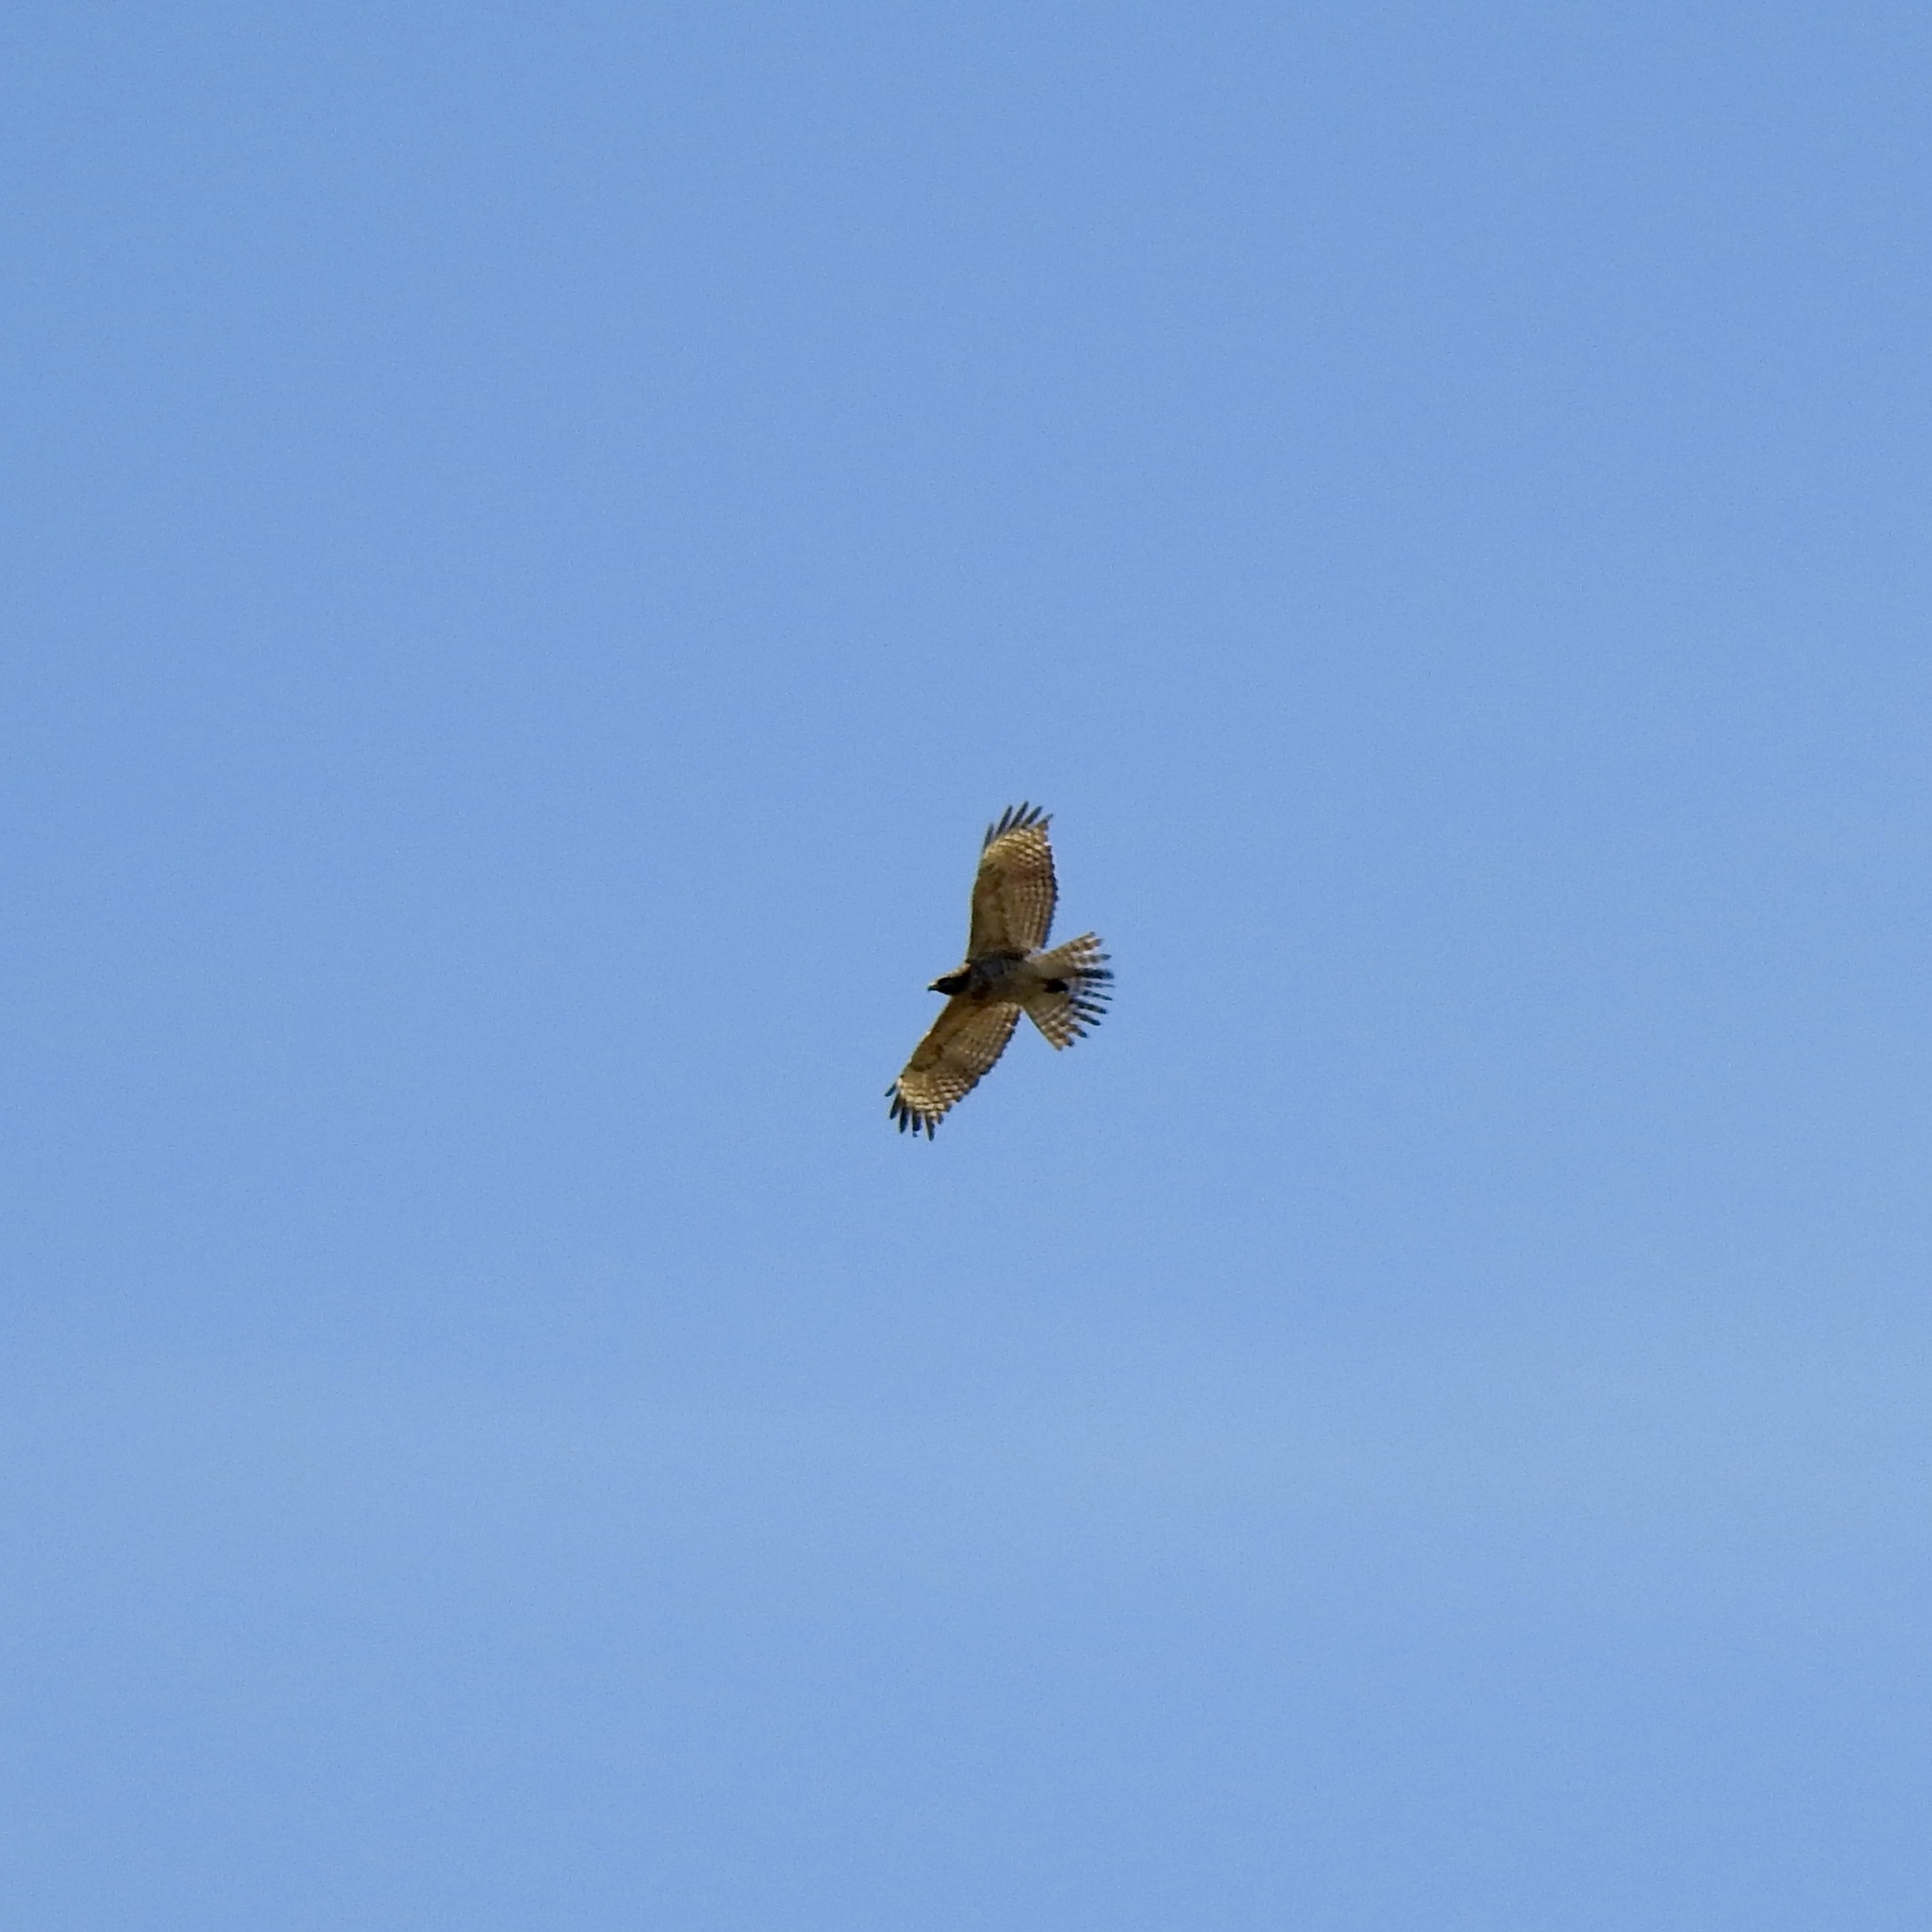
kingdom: Animalia
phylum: Chordata
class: Aves
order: Accipitriformes
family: Accipitridae
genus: Buteo
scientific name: Buteo jamaicensis
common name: Red-tailed hawk
